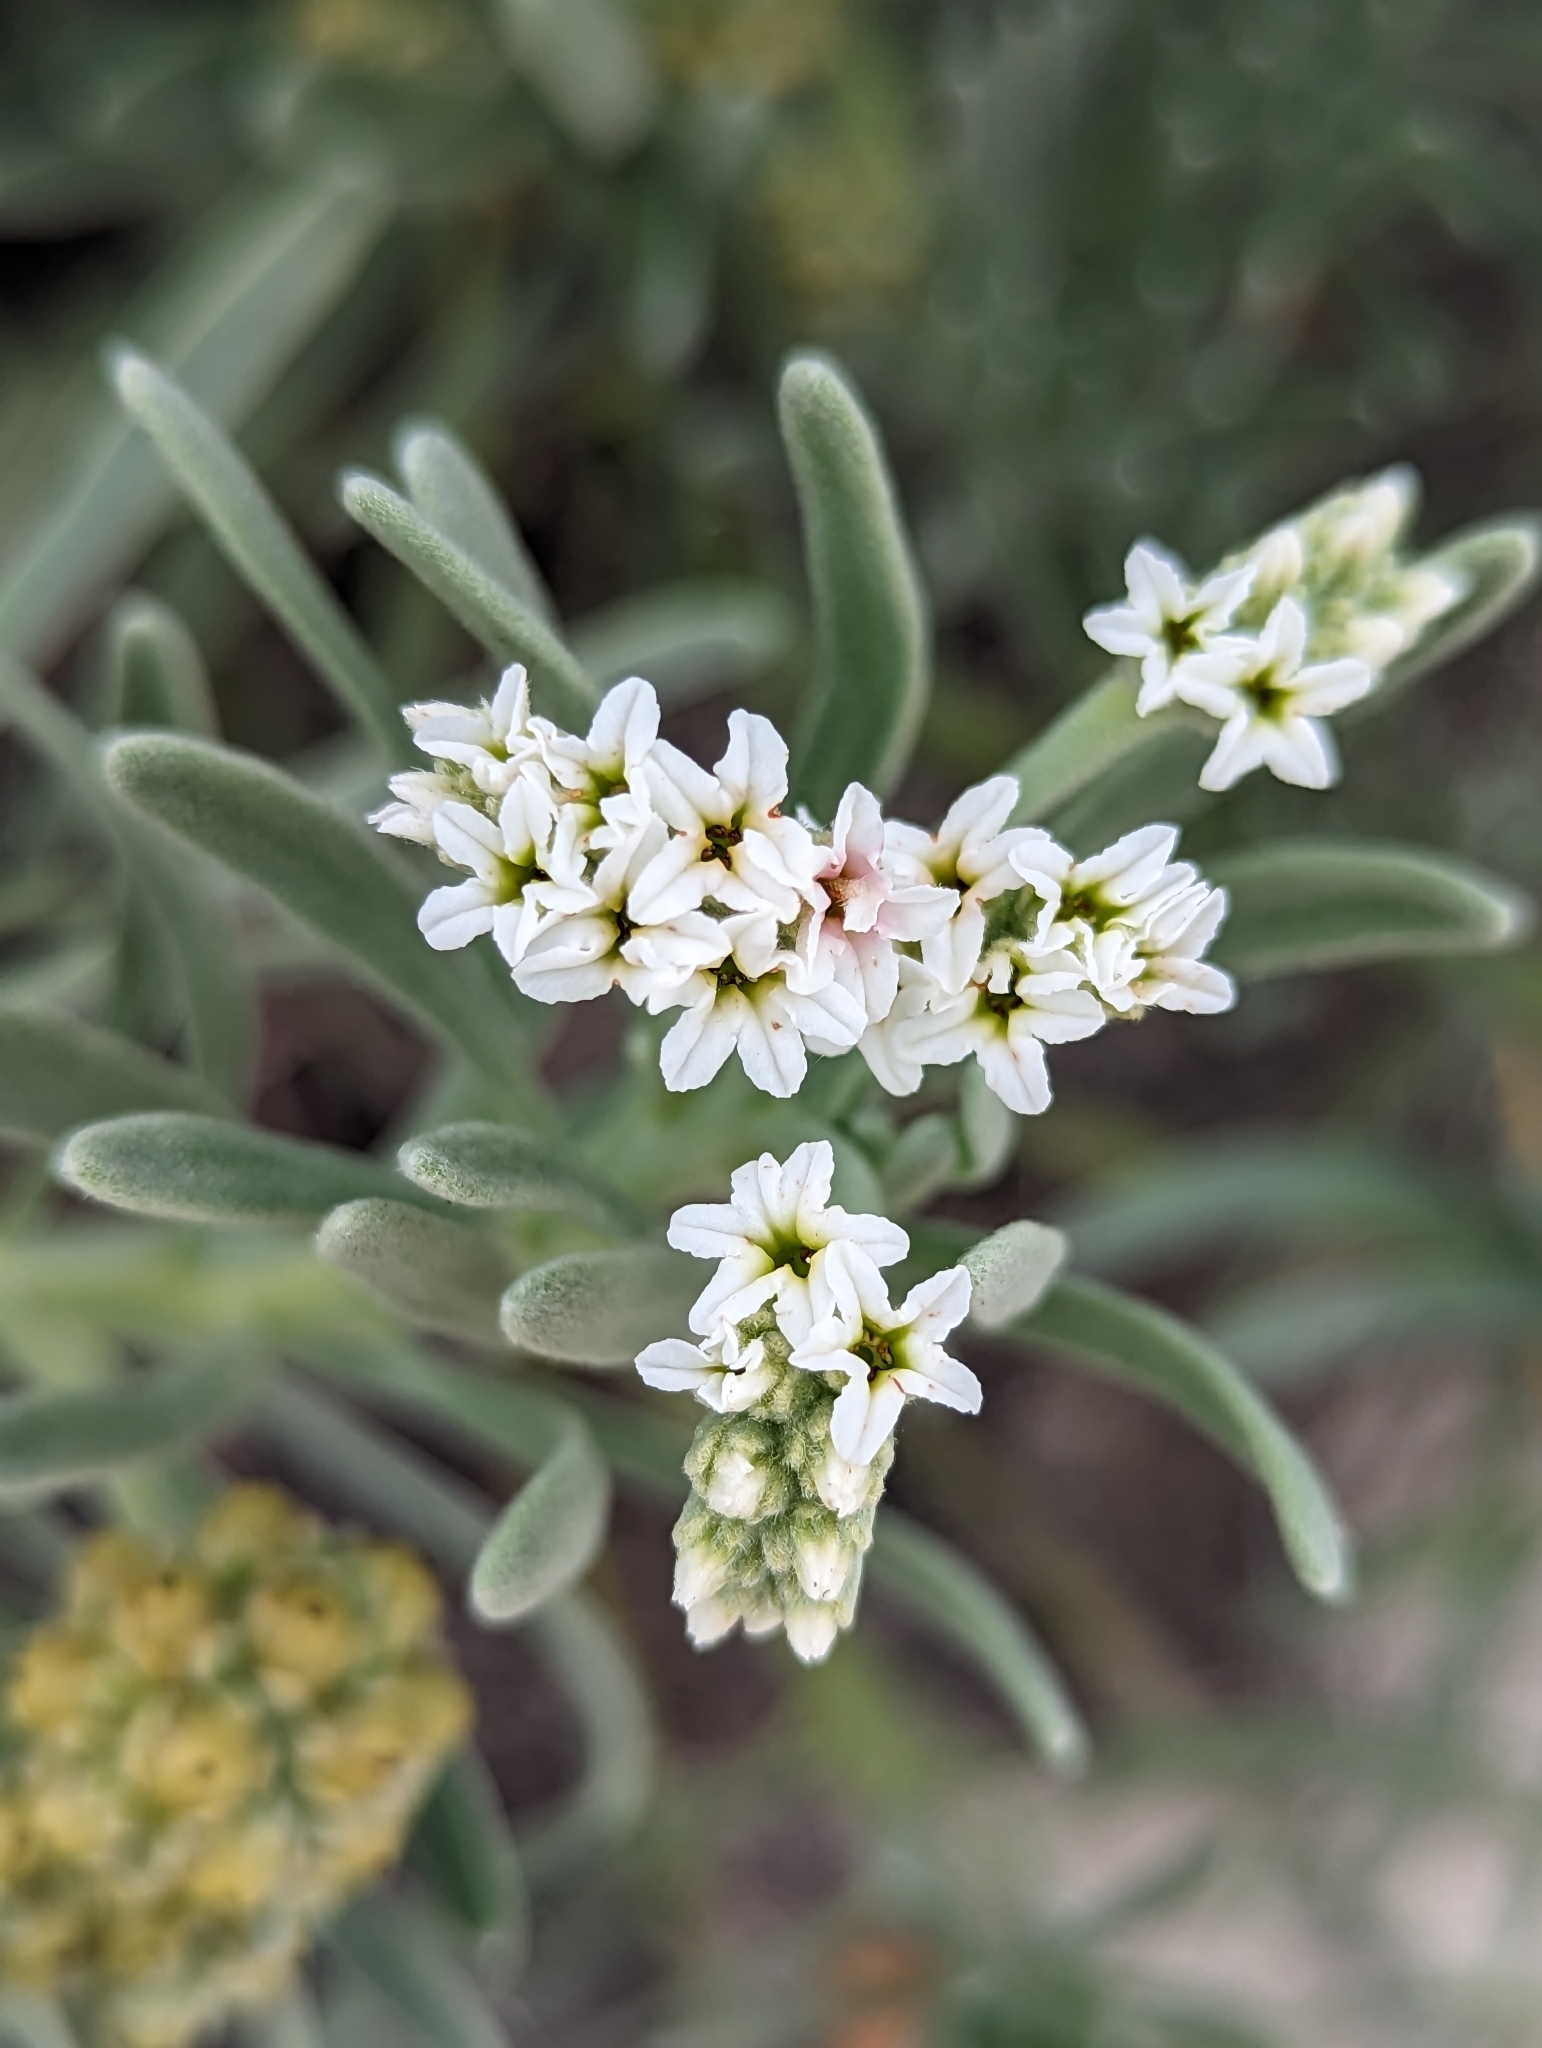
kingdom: Plantae
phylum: Tracheophyta
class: Magnoliopsida
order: Boraginales
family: Heliotropiaceae
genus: Tournefortia
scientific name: Tournefortia gnaphalodes
